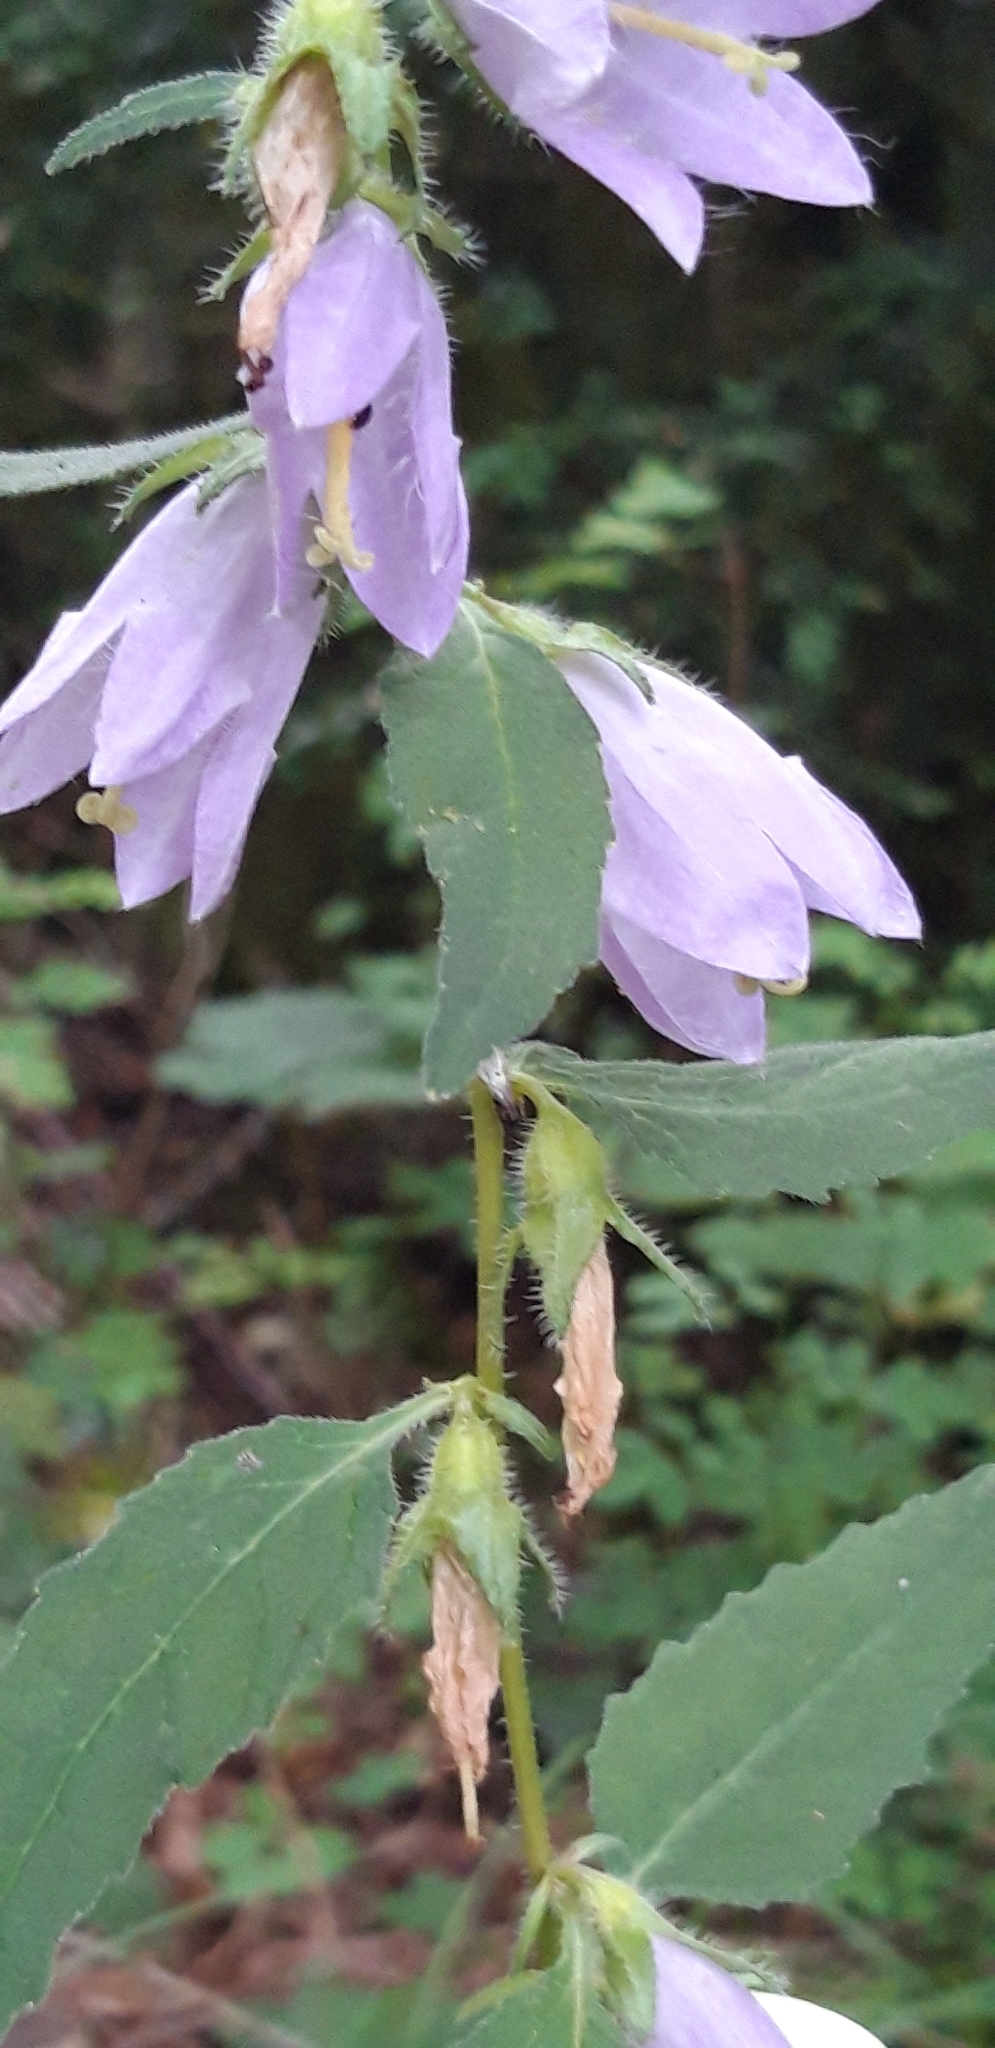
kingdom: Plantae
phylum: Tracheophyta
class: Magnoliopsida
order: Asterales
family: Campanulaceae
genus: Campanula
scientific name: Campanula trachelium
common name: Nettle-leaved bellflower
